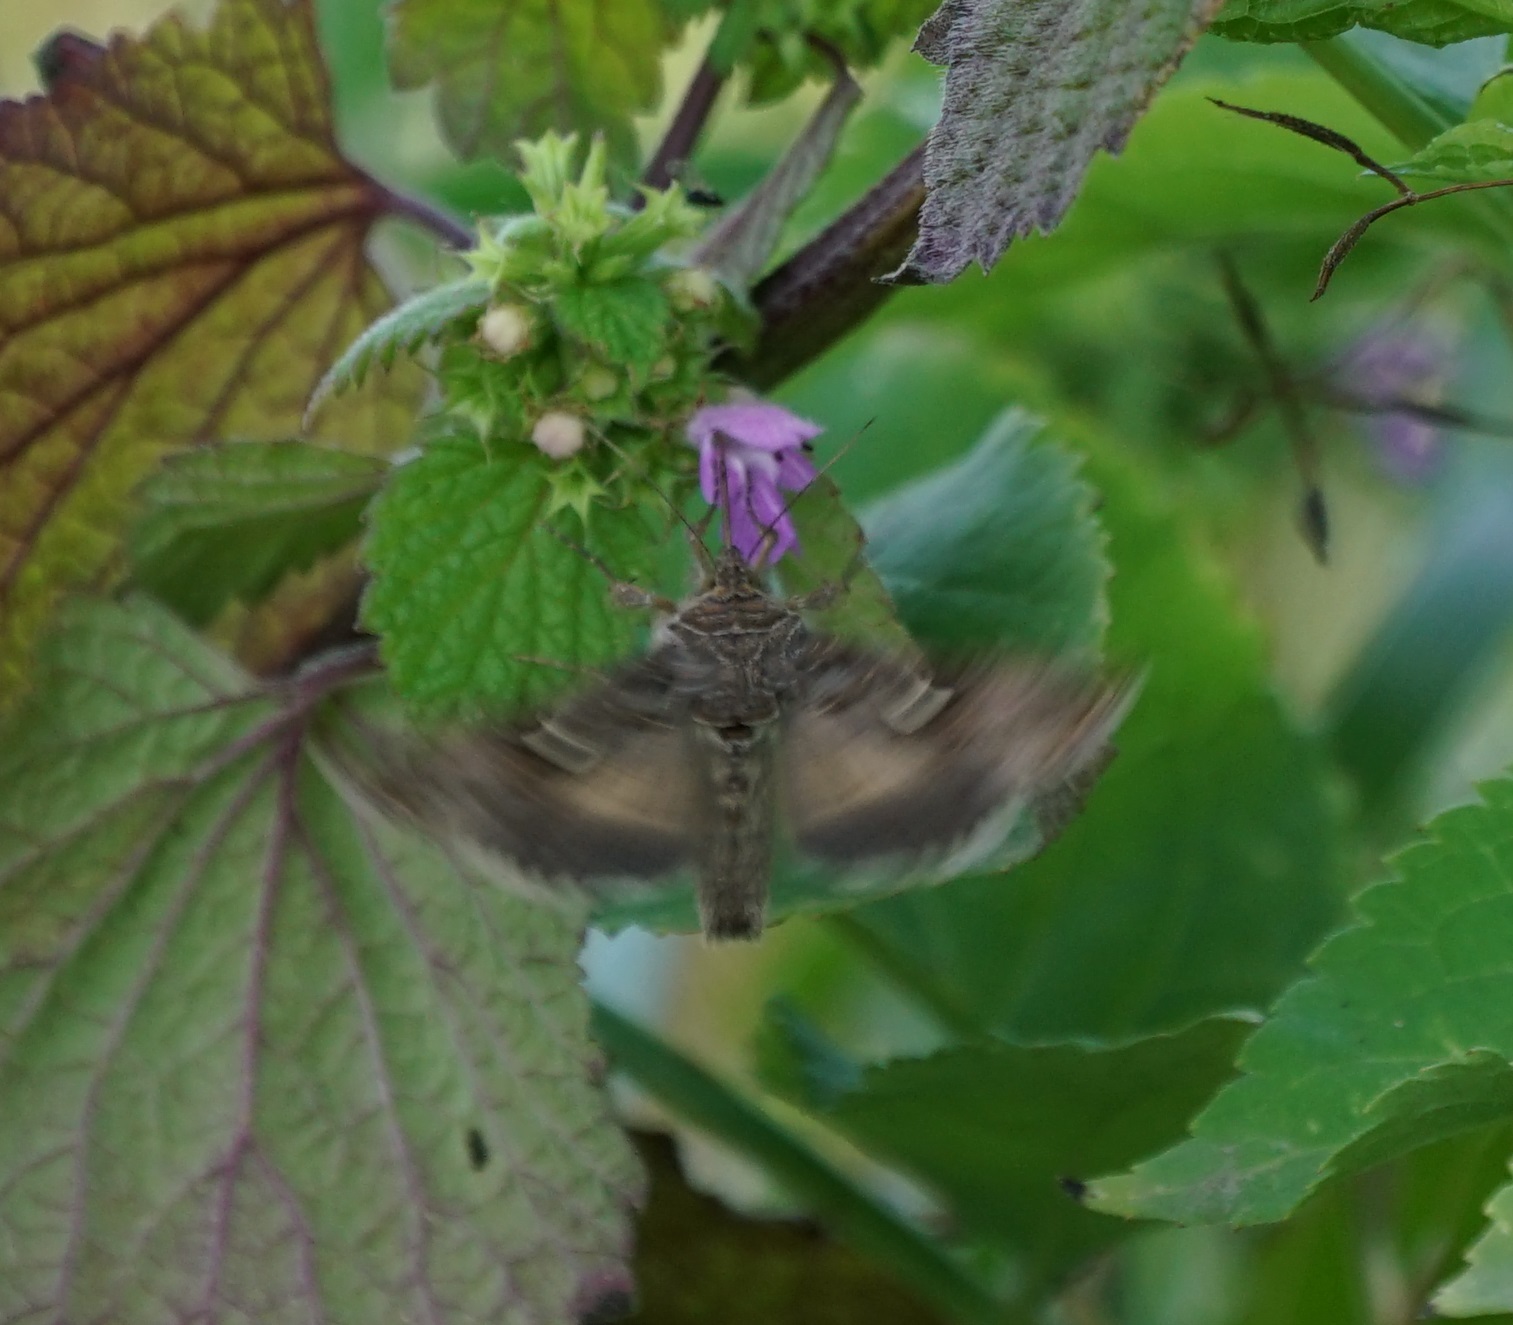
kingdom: Animalia
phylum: Arthropoda
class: Insecta
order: Lepidoptera
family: Noctuidae
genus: Autographa
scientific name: Autographa gamma
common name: Silver y
